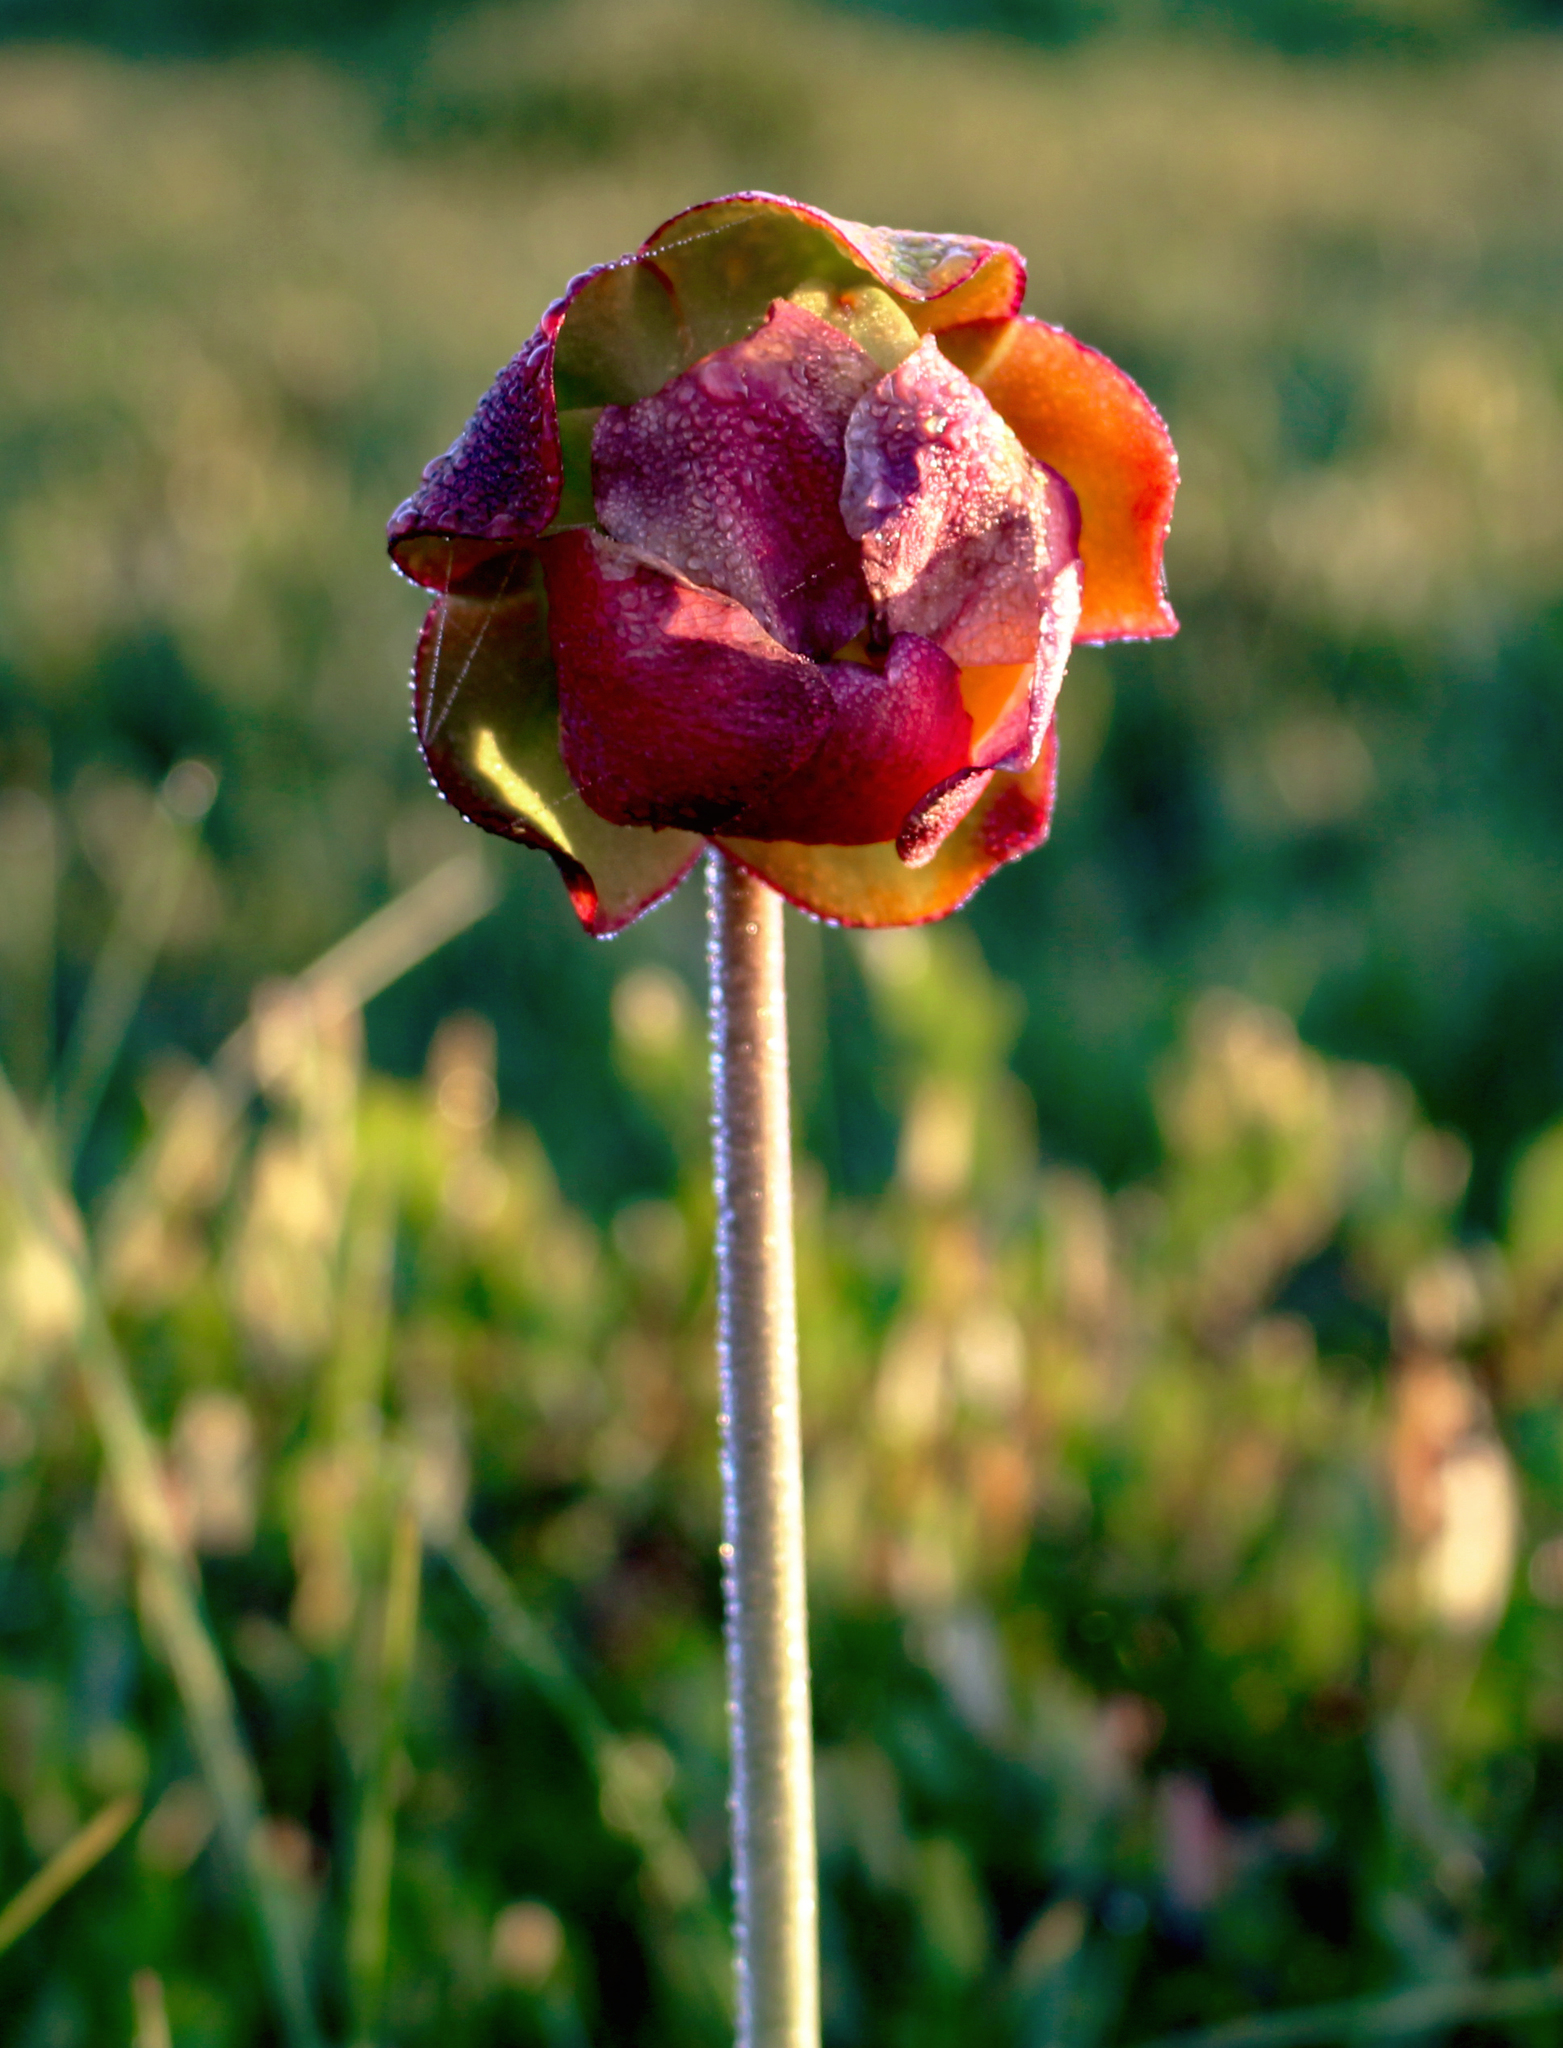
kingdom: Plantae
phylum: Tracheophyta
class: Magnoliopsida
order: Ericales
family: Sarraceniaceae
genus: Sarracenia
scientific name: Sarracenia purpurea
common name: Pitcherplant
